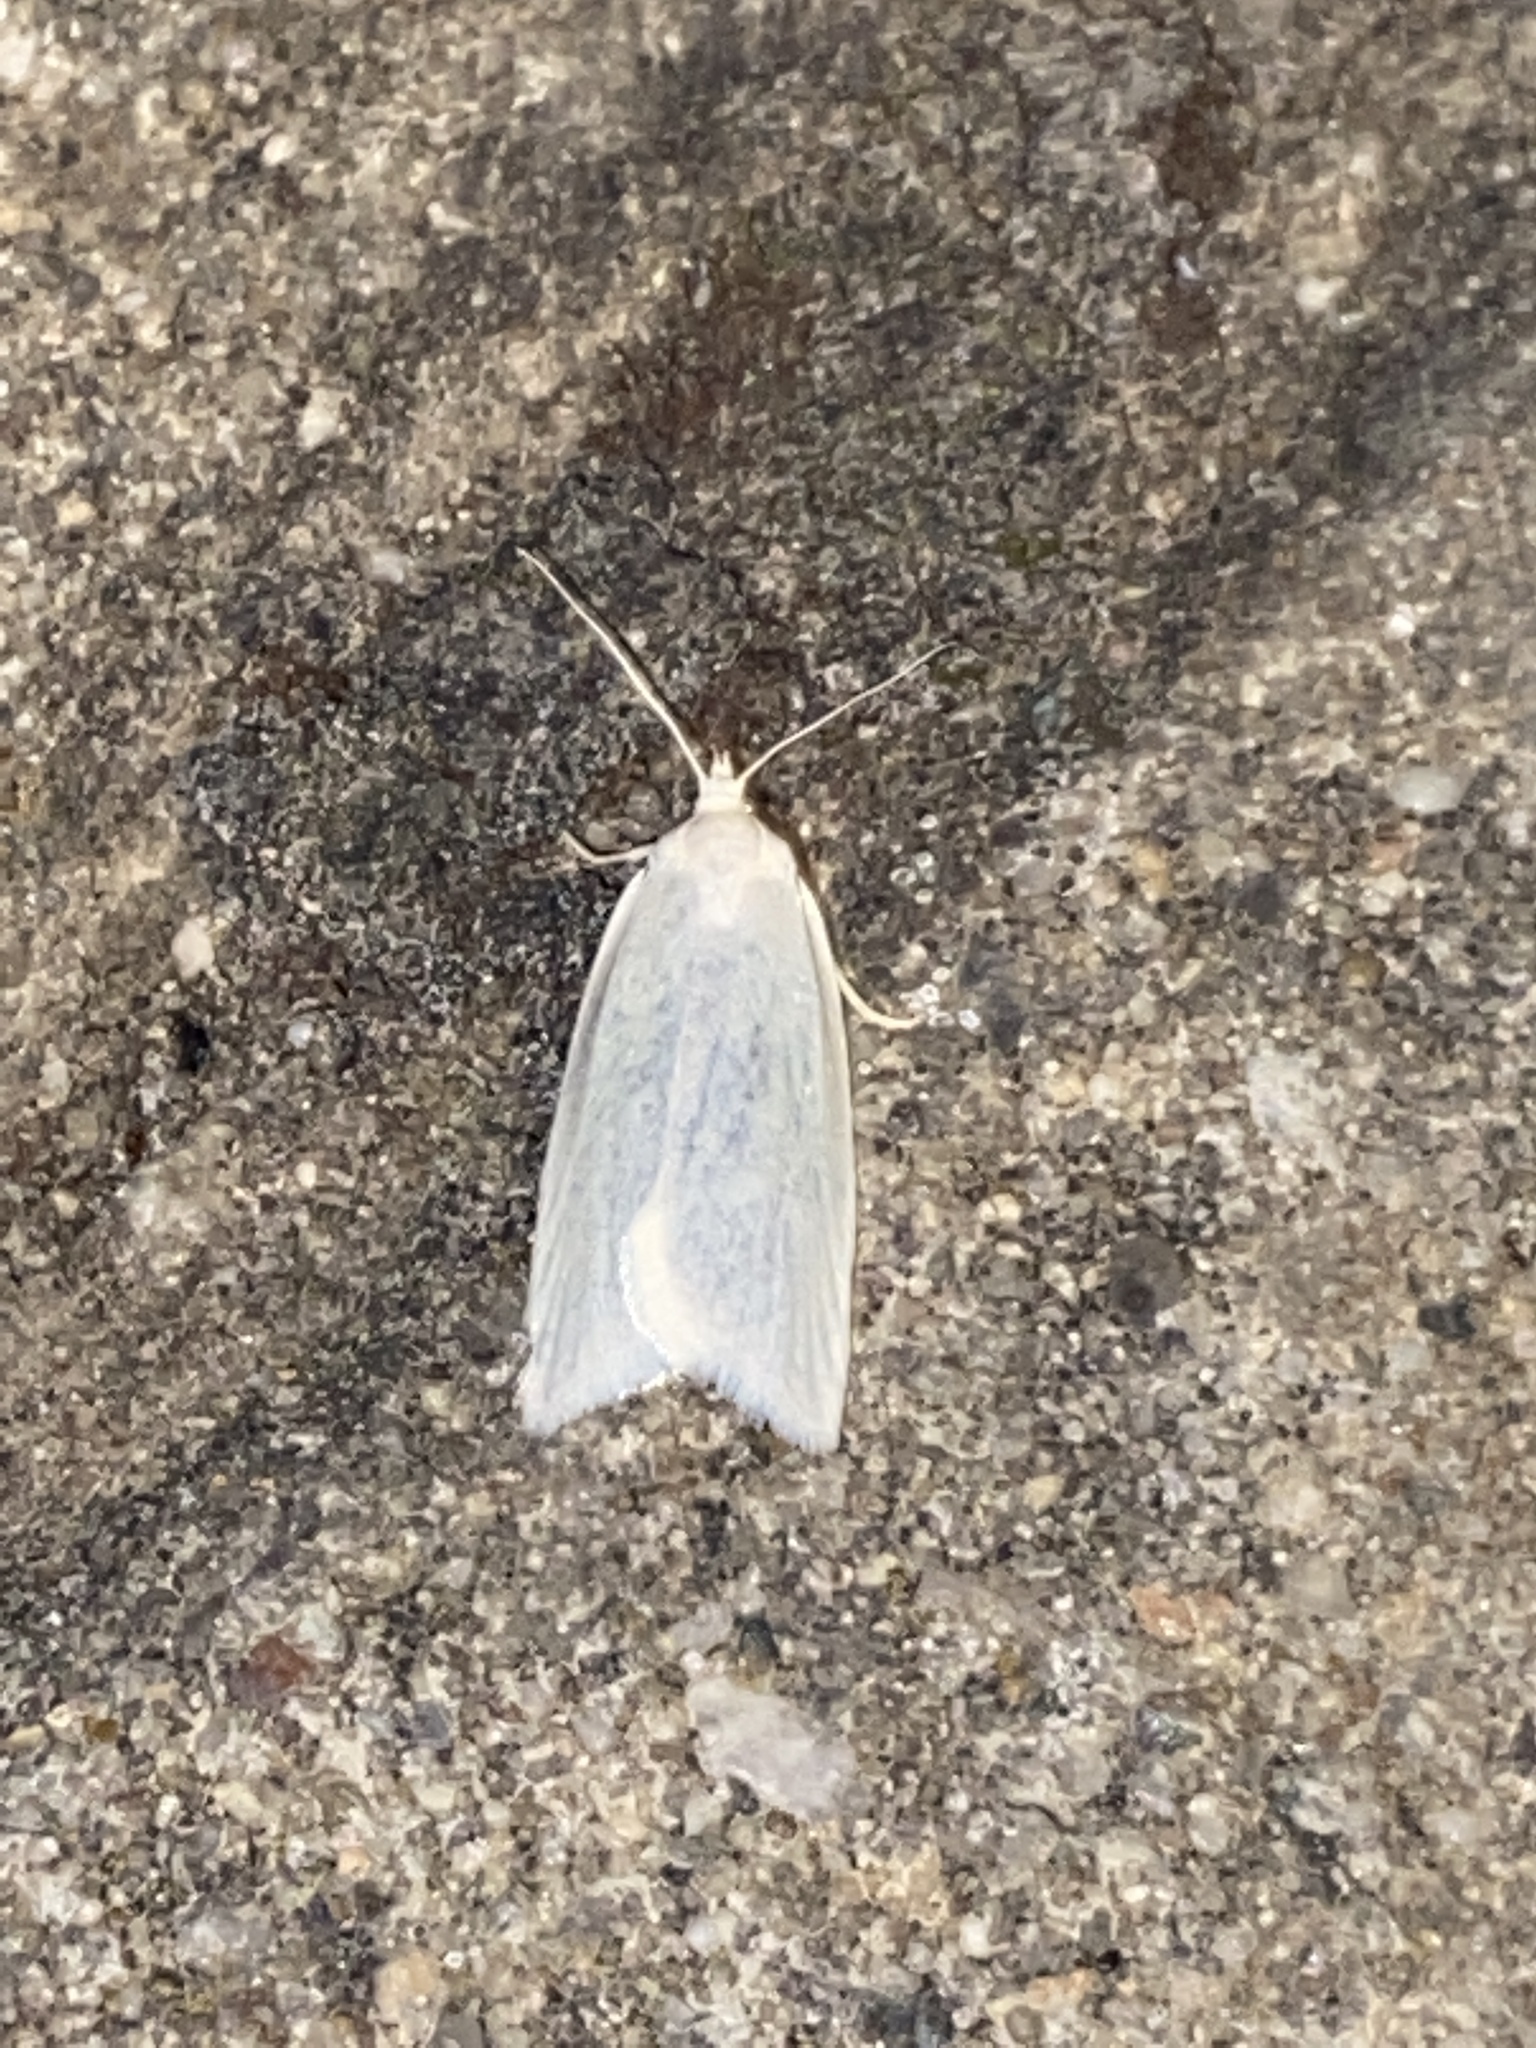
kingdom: Animalia
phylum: Arthropoda
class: Insecta
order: Lepidoptera
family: Tortricidae
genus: Eana
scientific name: Eana argentana
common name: Silver shade
